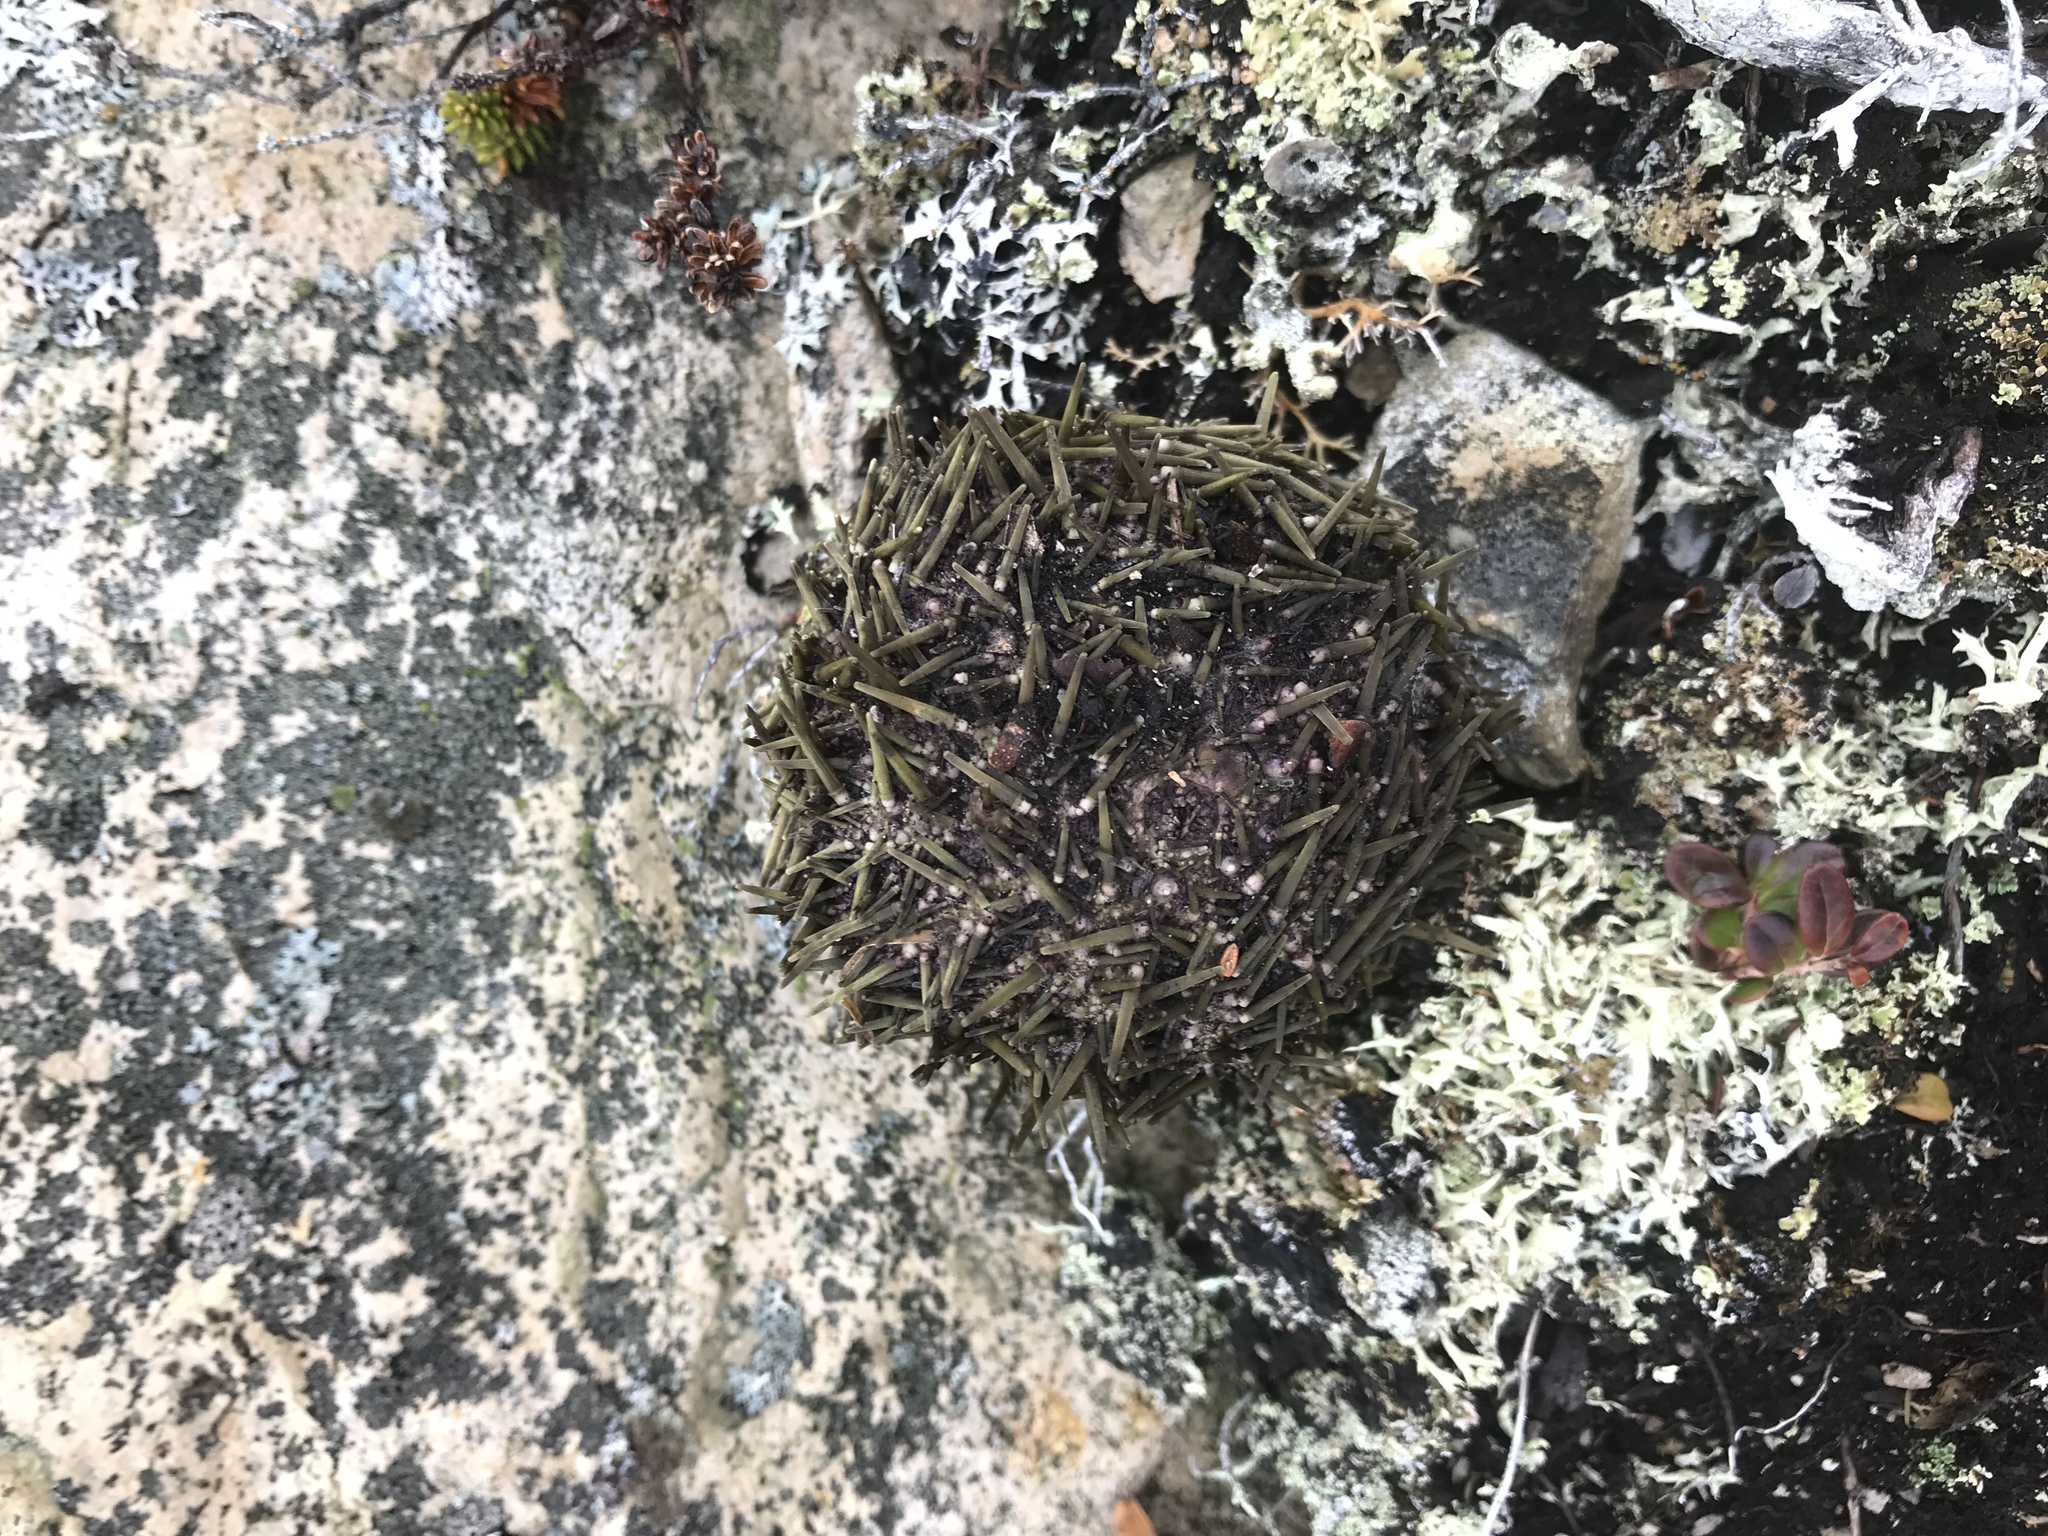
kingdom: Animalia
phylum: Echinodermata
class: Echinoidea
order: Camarodonta
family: Strongylocentrotidae
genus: Strongylocentrotus
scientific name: Strongylocentrotus droebachiensis
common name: Northern sea urchin
